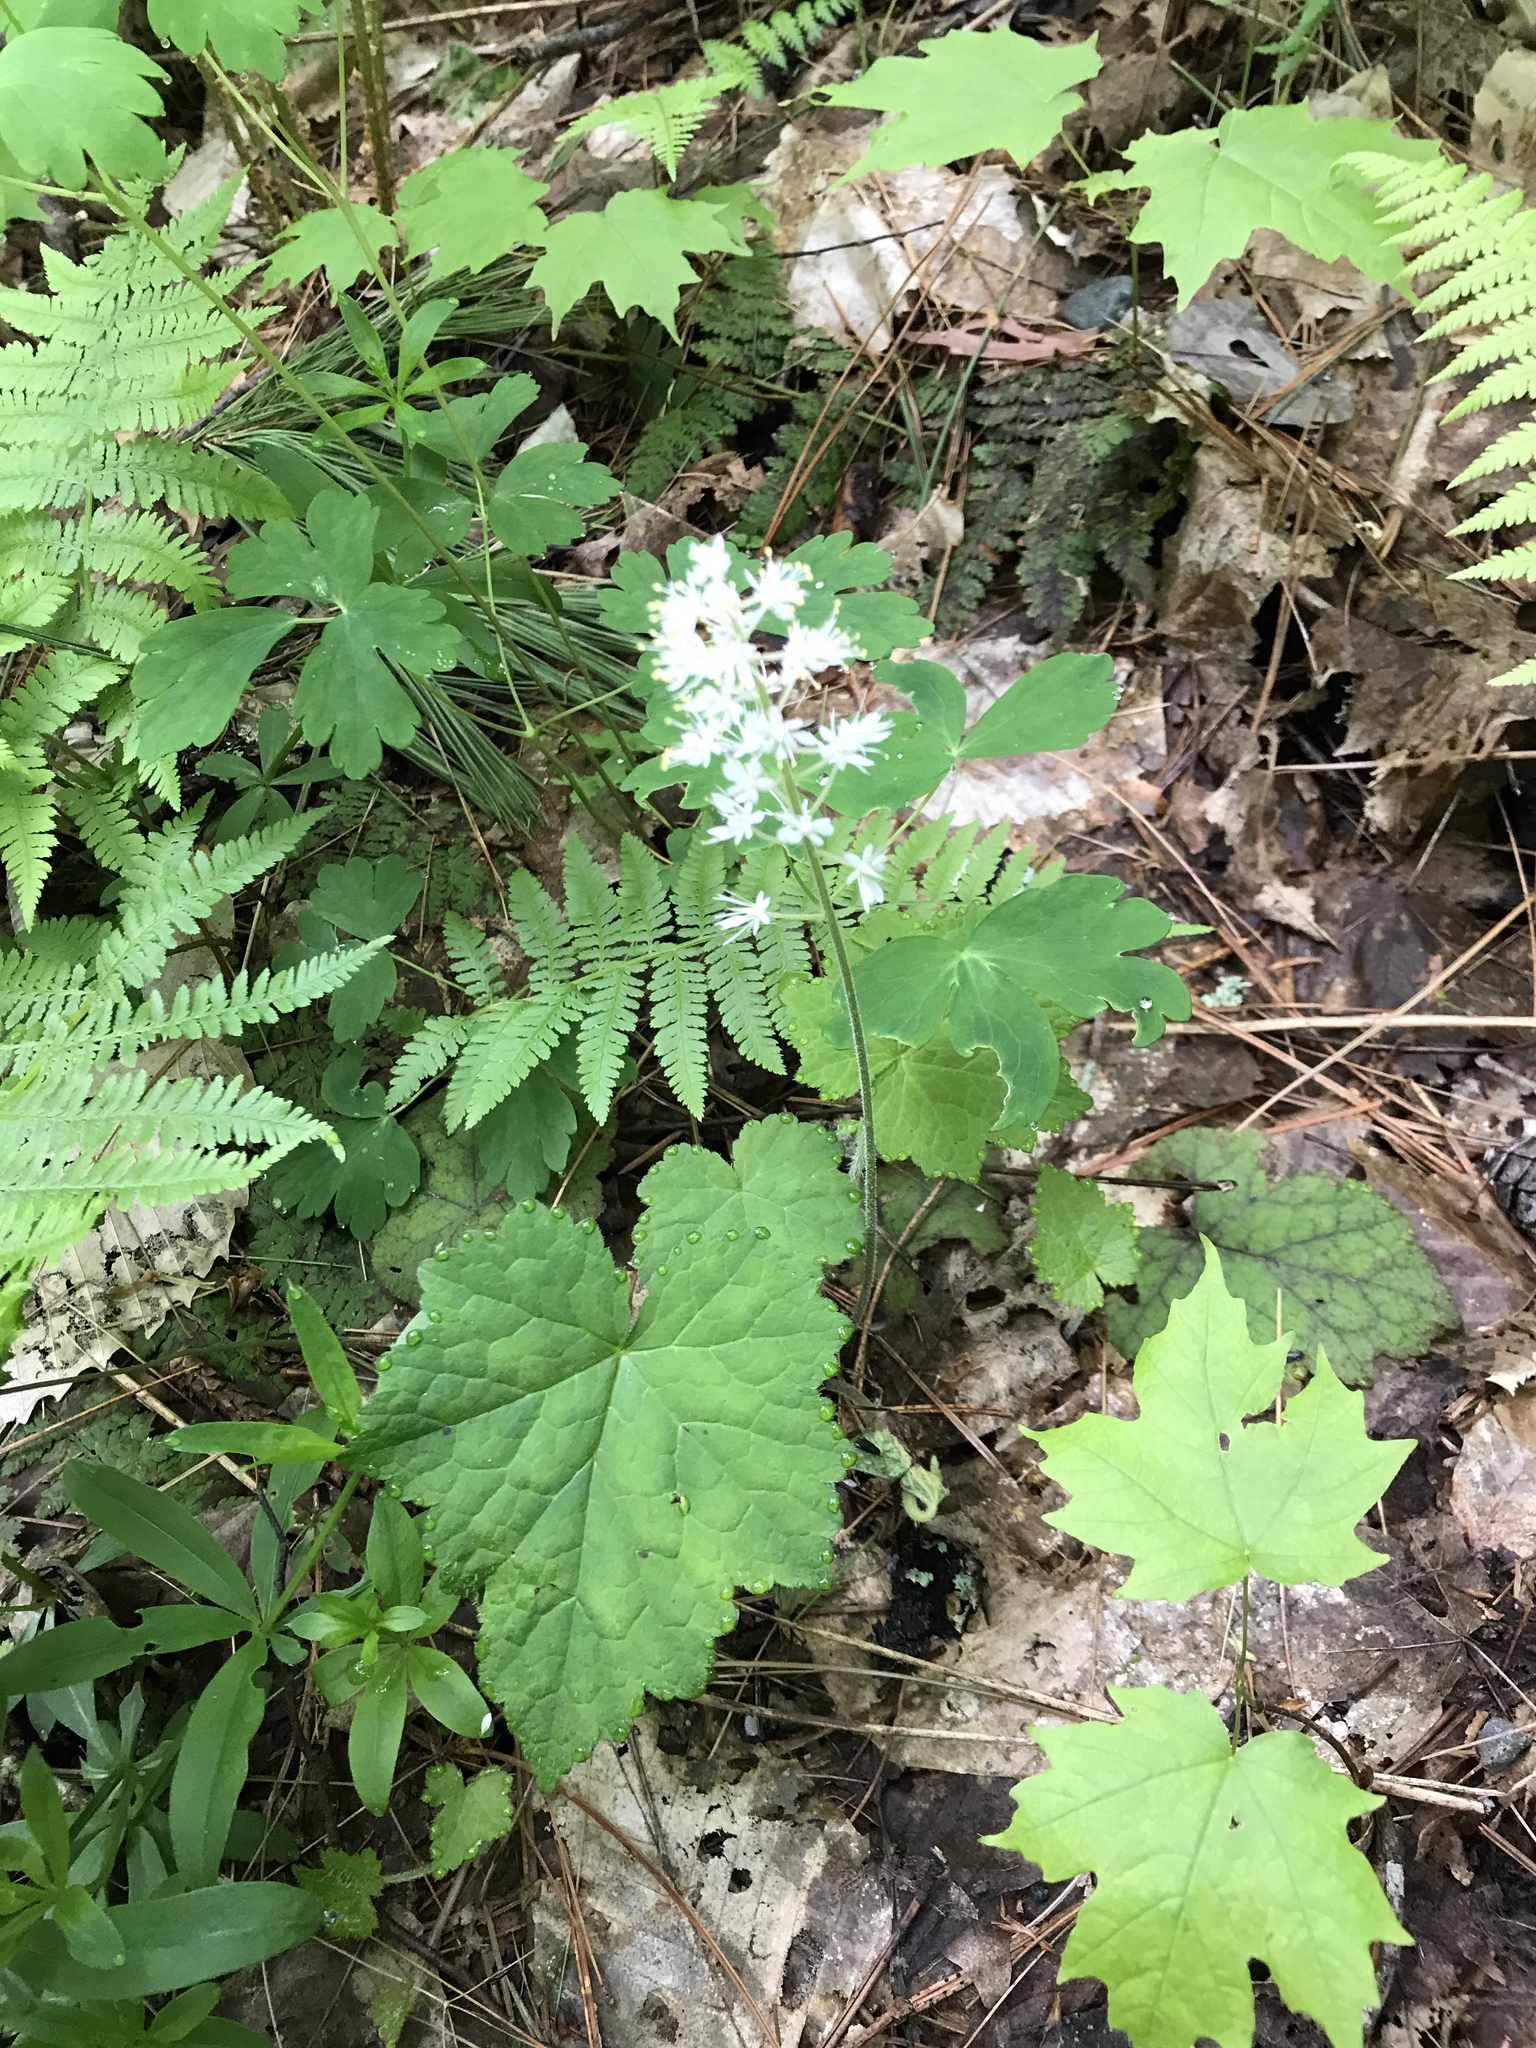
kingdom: Plantae
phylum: Tracheophyta
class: Magnoliopsida
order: Saxifragales
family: Saxifragaceae
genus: Tiarella
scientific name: Tiarella stolonifera
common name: Stoloniferous foamflower
